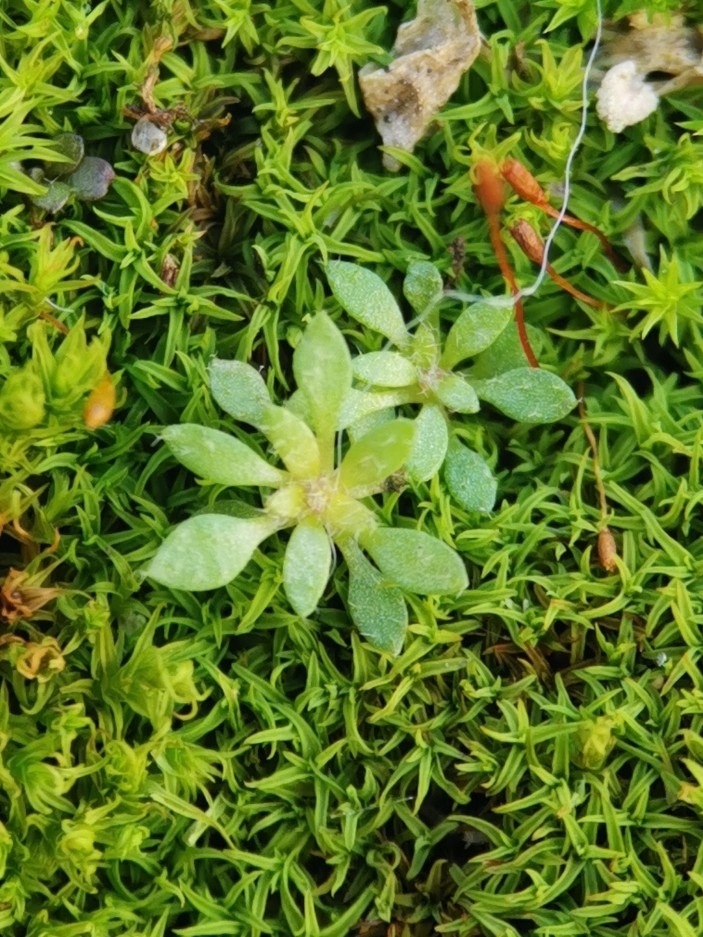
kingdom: Plantae
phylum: Tracheophyta
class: Magnoliopsida
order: Brassicales
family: Brassicaceae
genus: Draba
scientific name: Draba verna
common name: Spring draba
